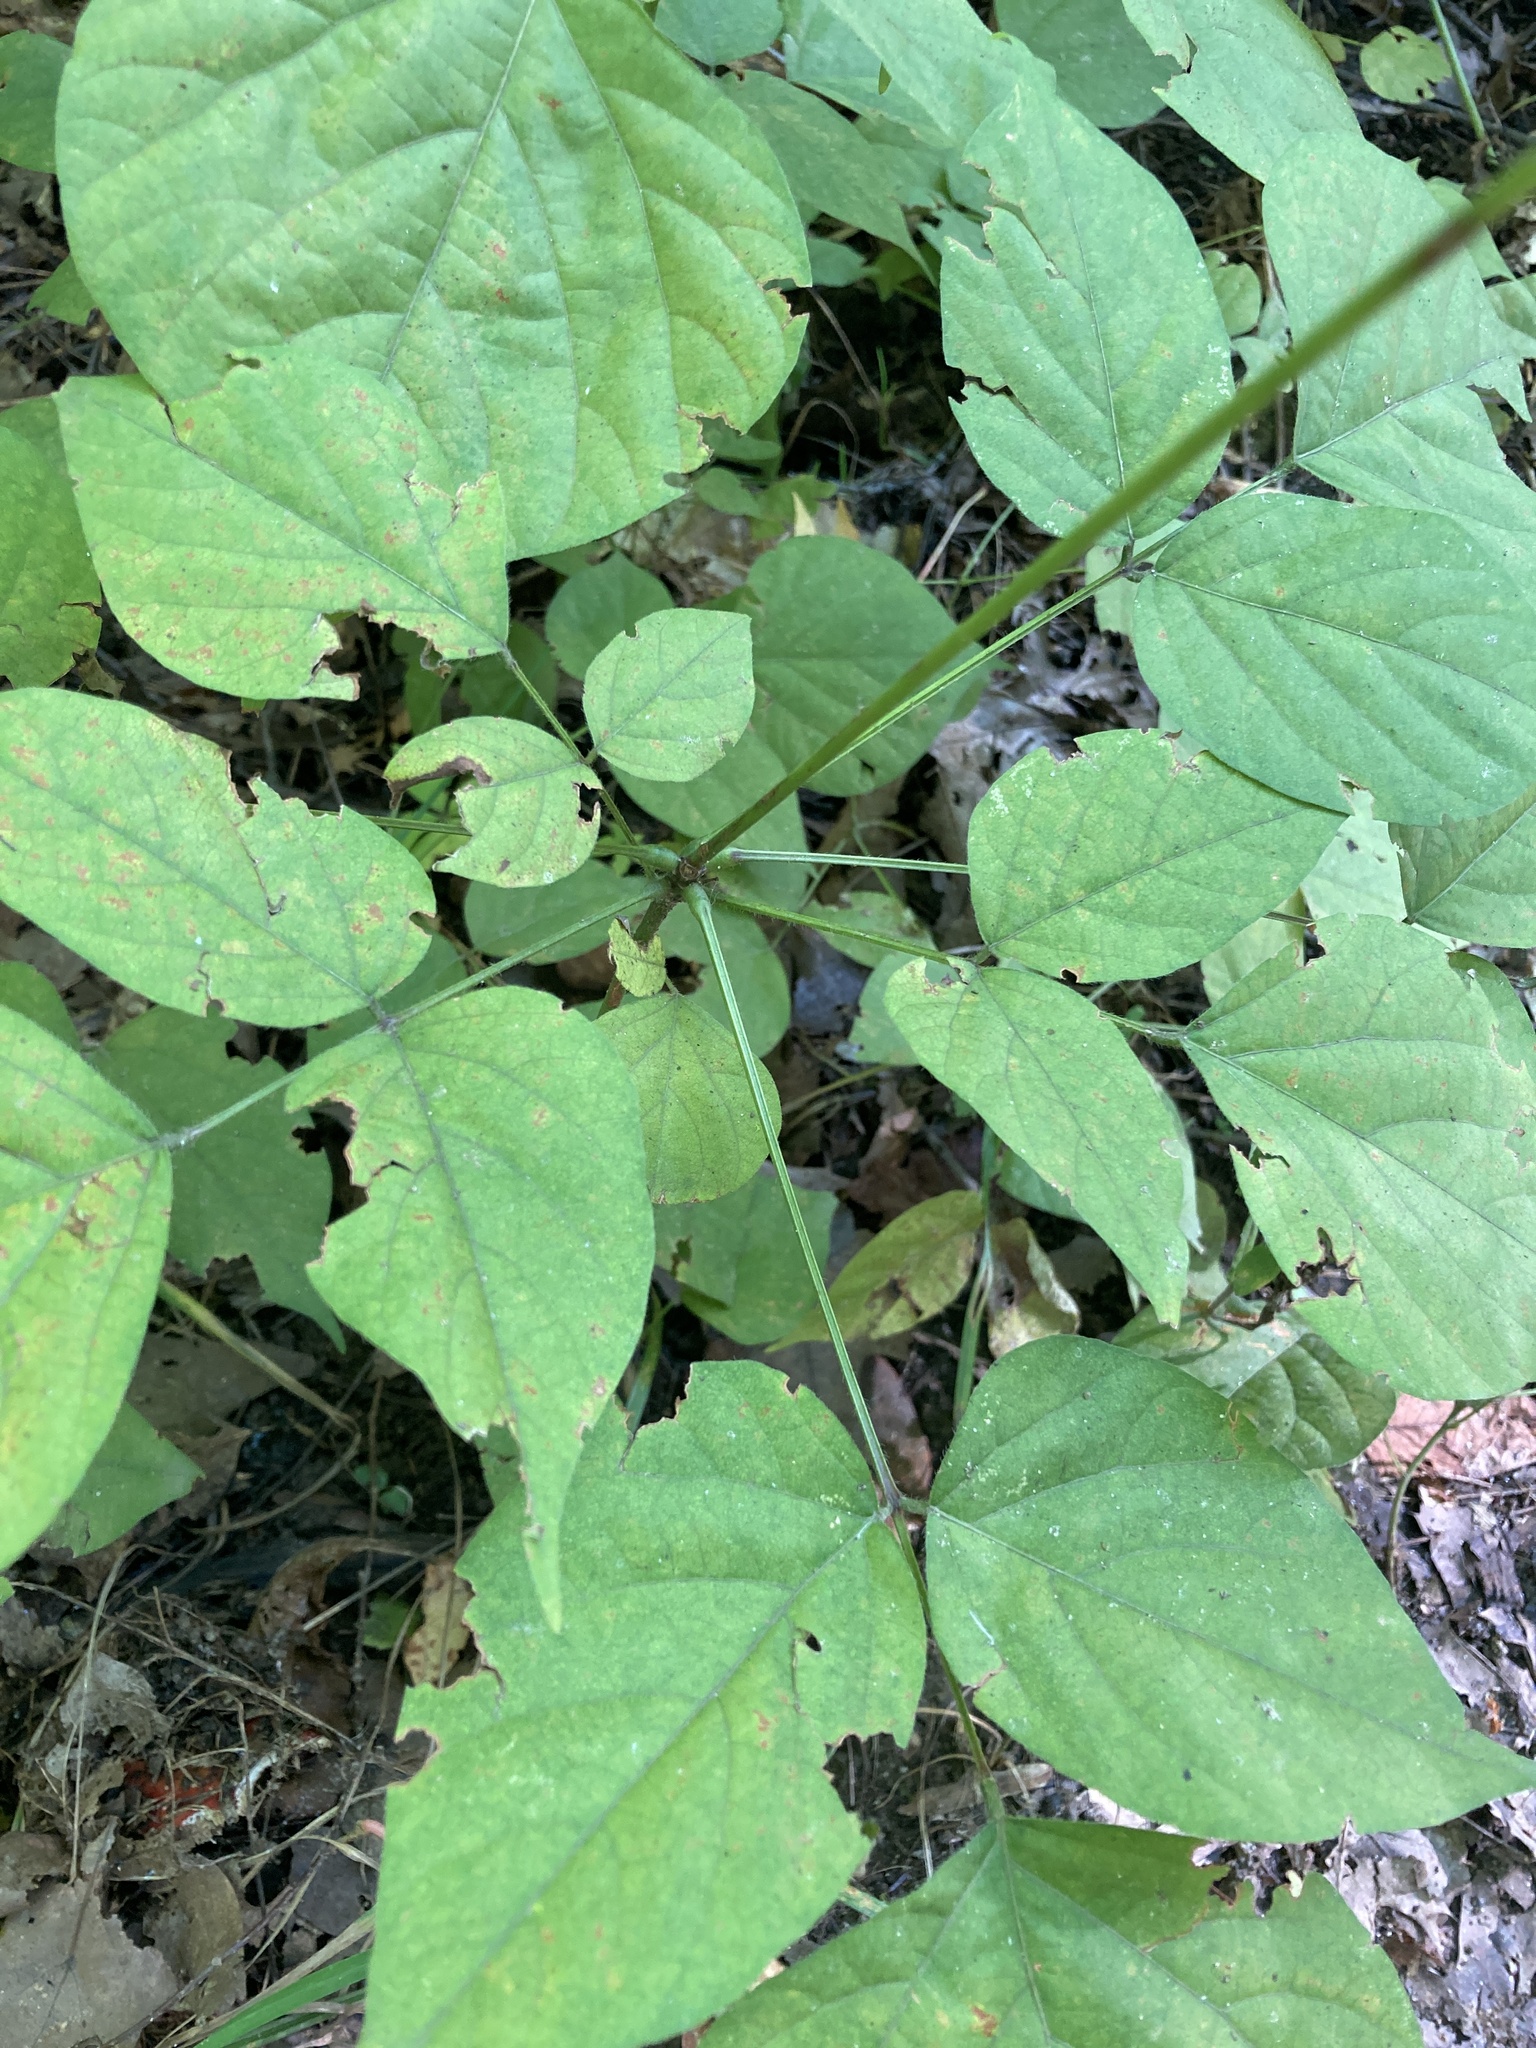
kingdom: Plantae
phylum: Tracheophyta
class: Magnoliopsida
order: Fabales
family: Fabaceae
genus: Hylodesmum
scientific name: Hylodesmum glutinosum
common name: Clustered-leaved tick-trefoil
